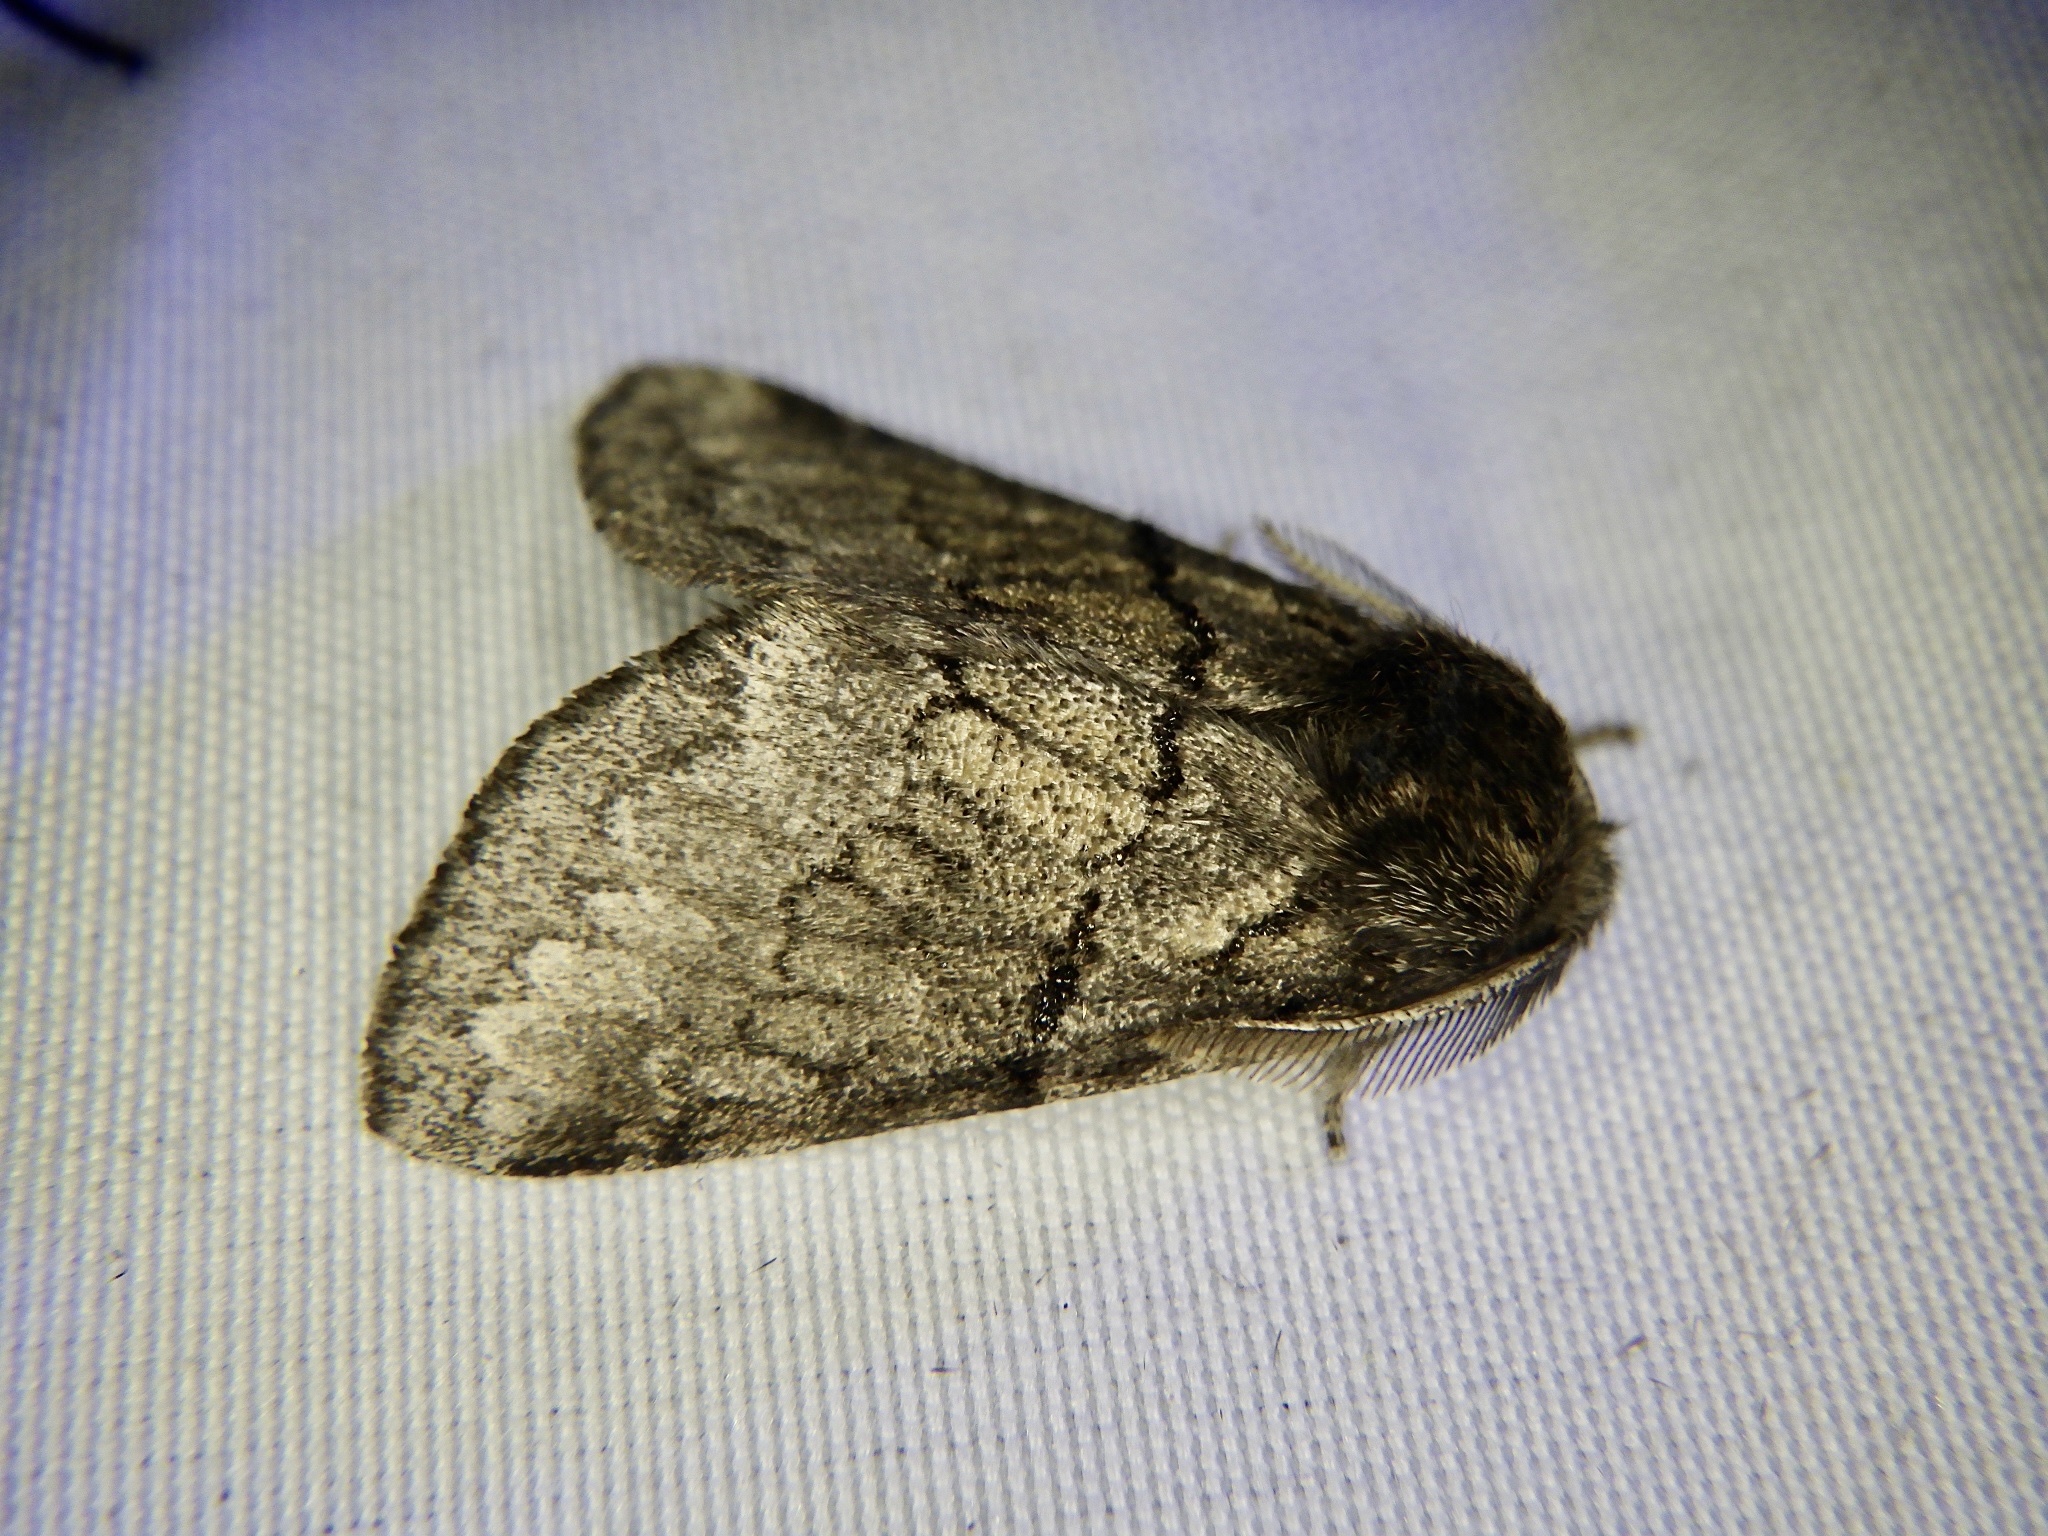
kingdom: Animalia
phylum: Arthropoda
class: Insecta
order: Lepidoptera
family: Notodontidae
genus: Gluphisia
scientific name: Gluphisia crenata
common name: Dusky marbled brown
